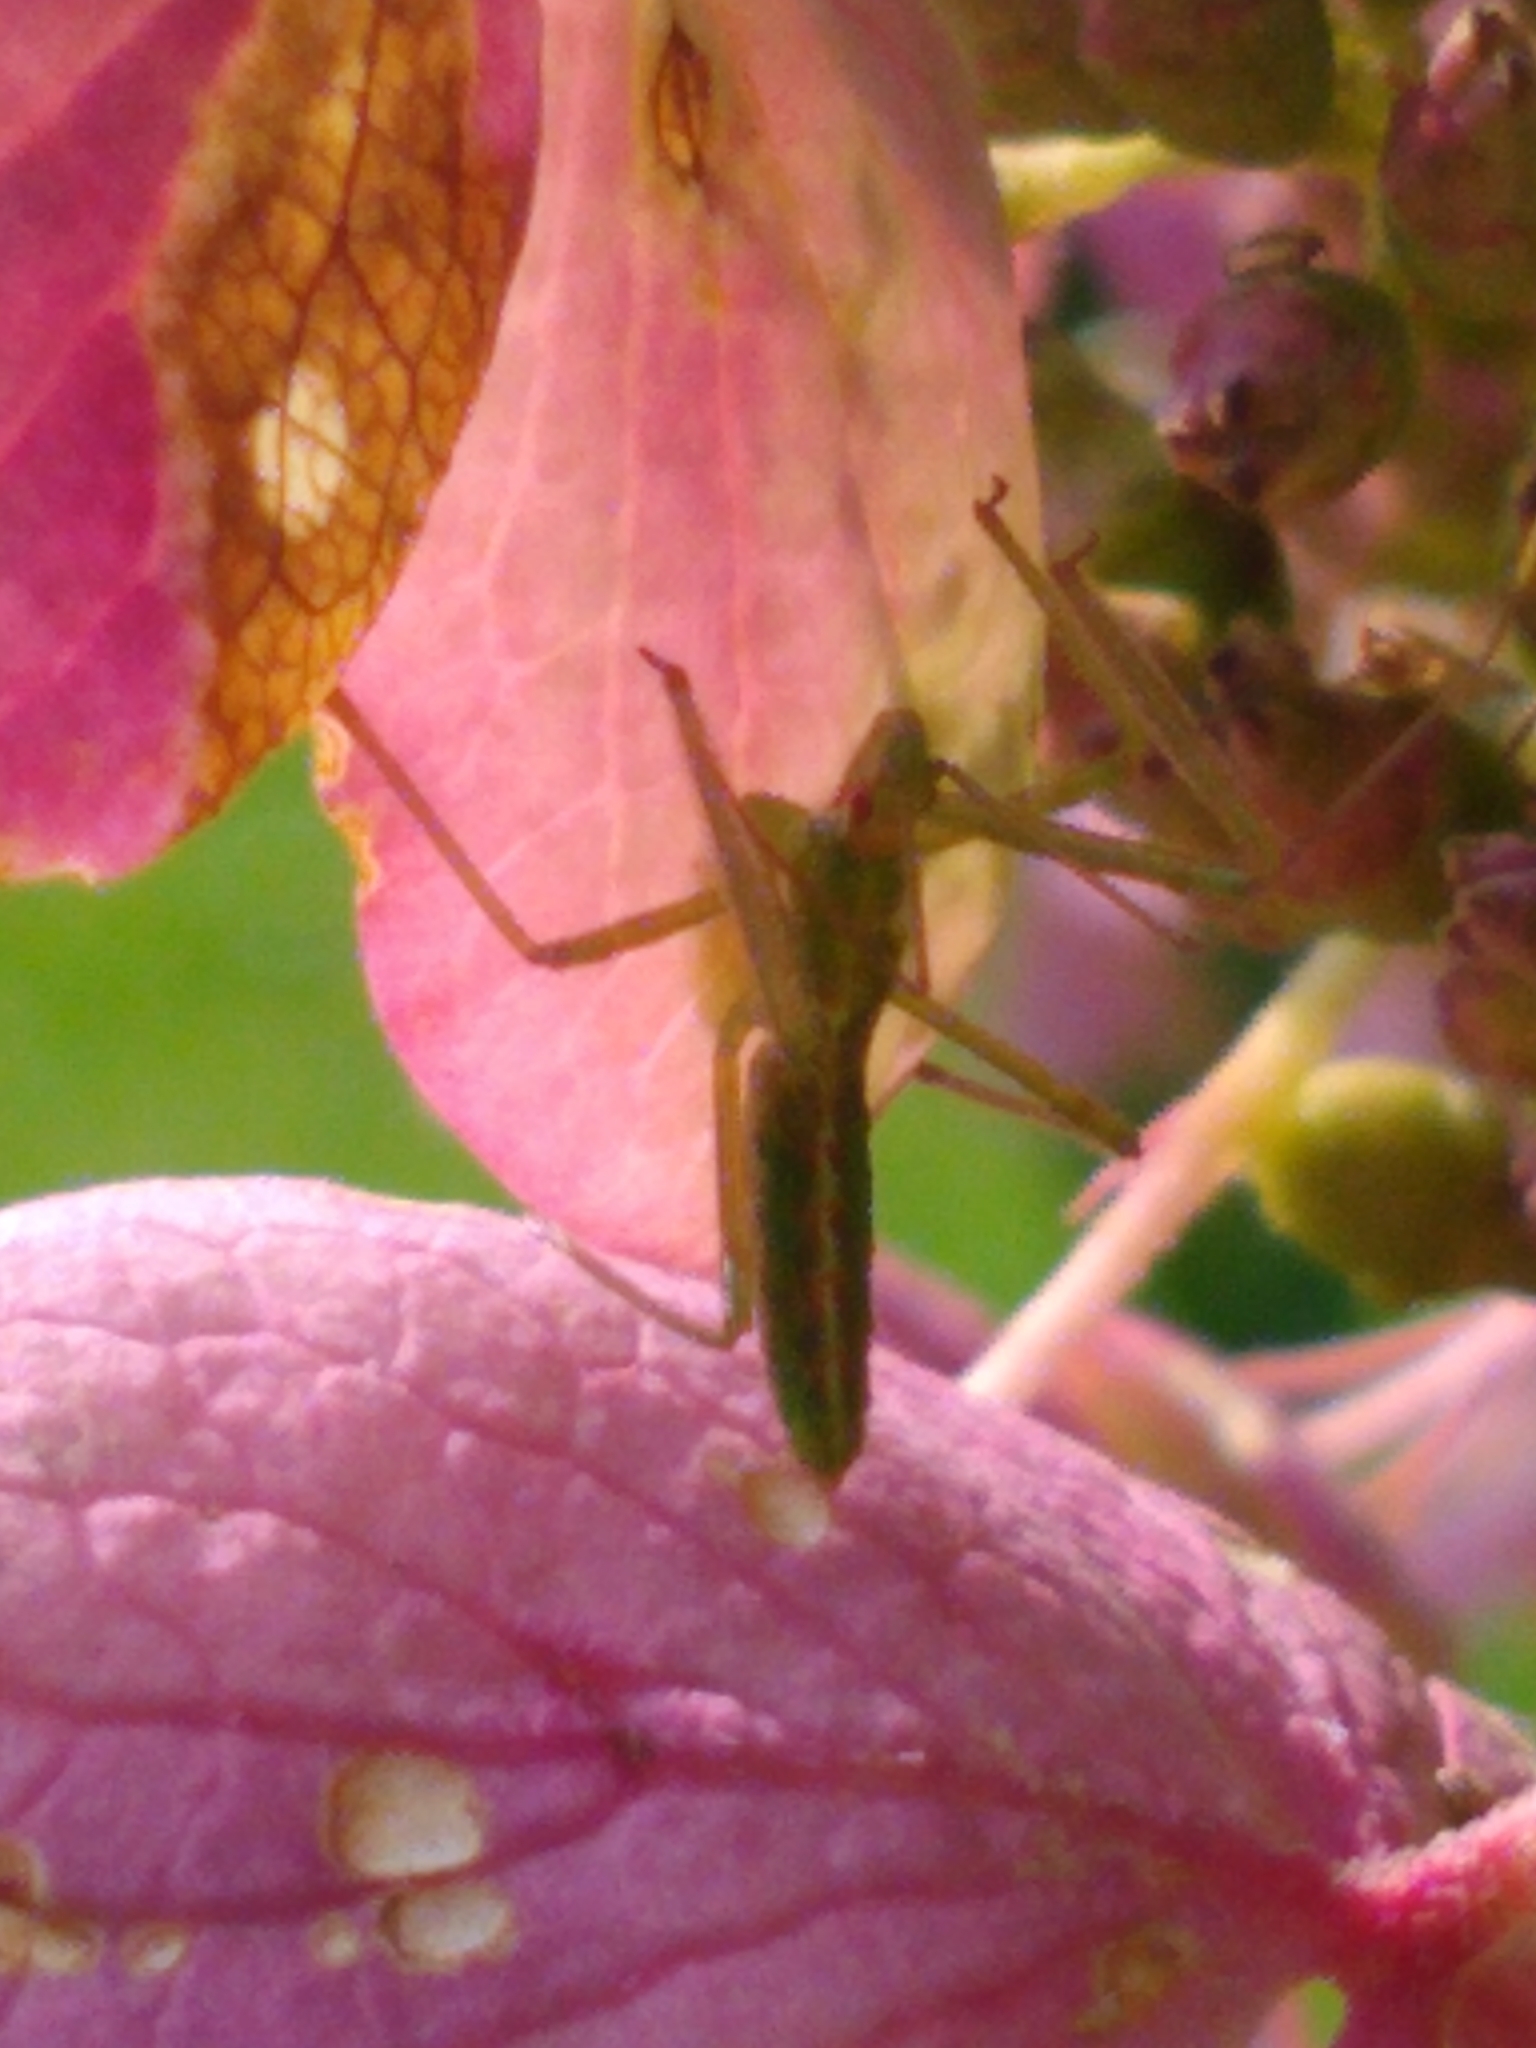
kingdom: Animalia
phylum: Arthropoda
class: Insecta
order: Hemiptera
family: Reduviidae
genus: Zelus
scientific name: Zelus luridus
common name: Pale green assassin bug
